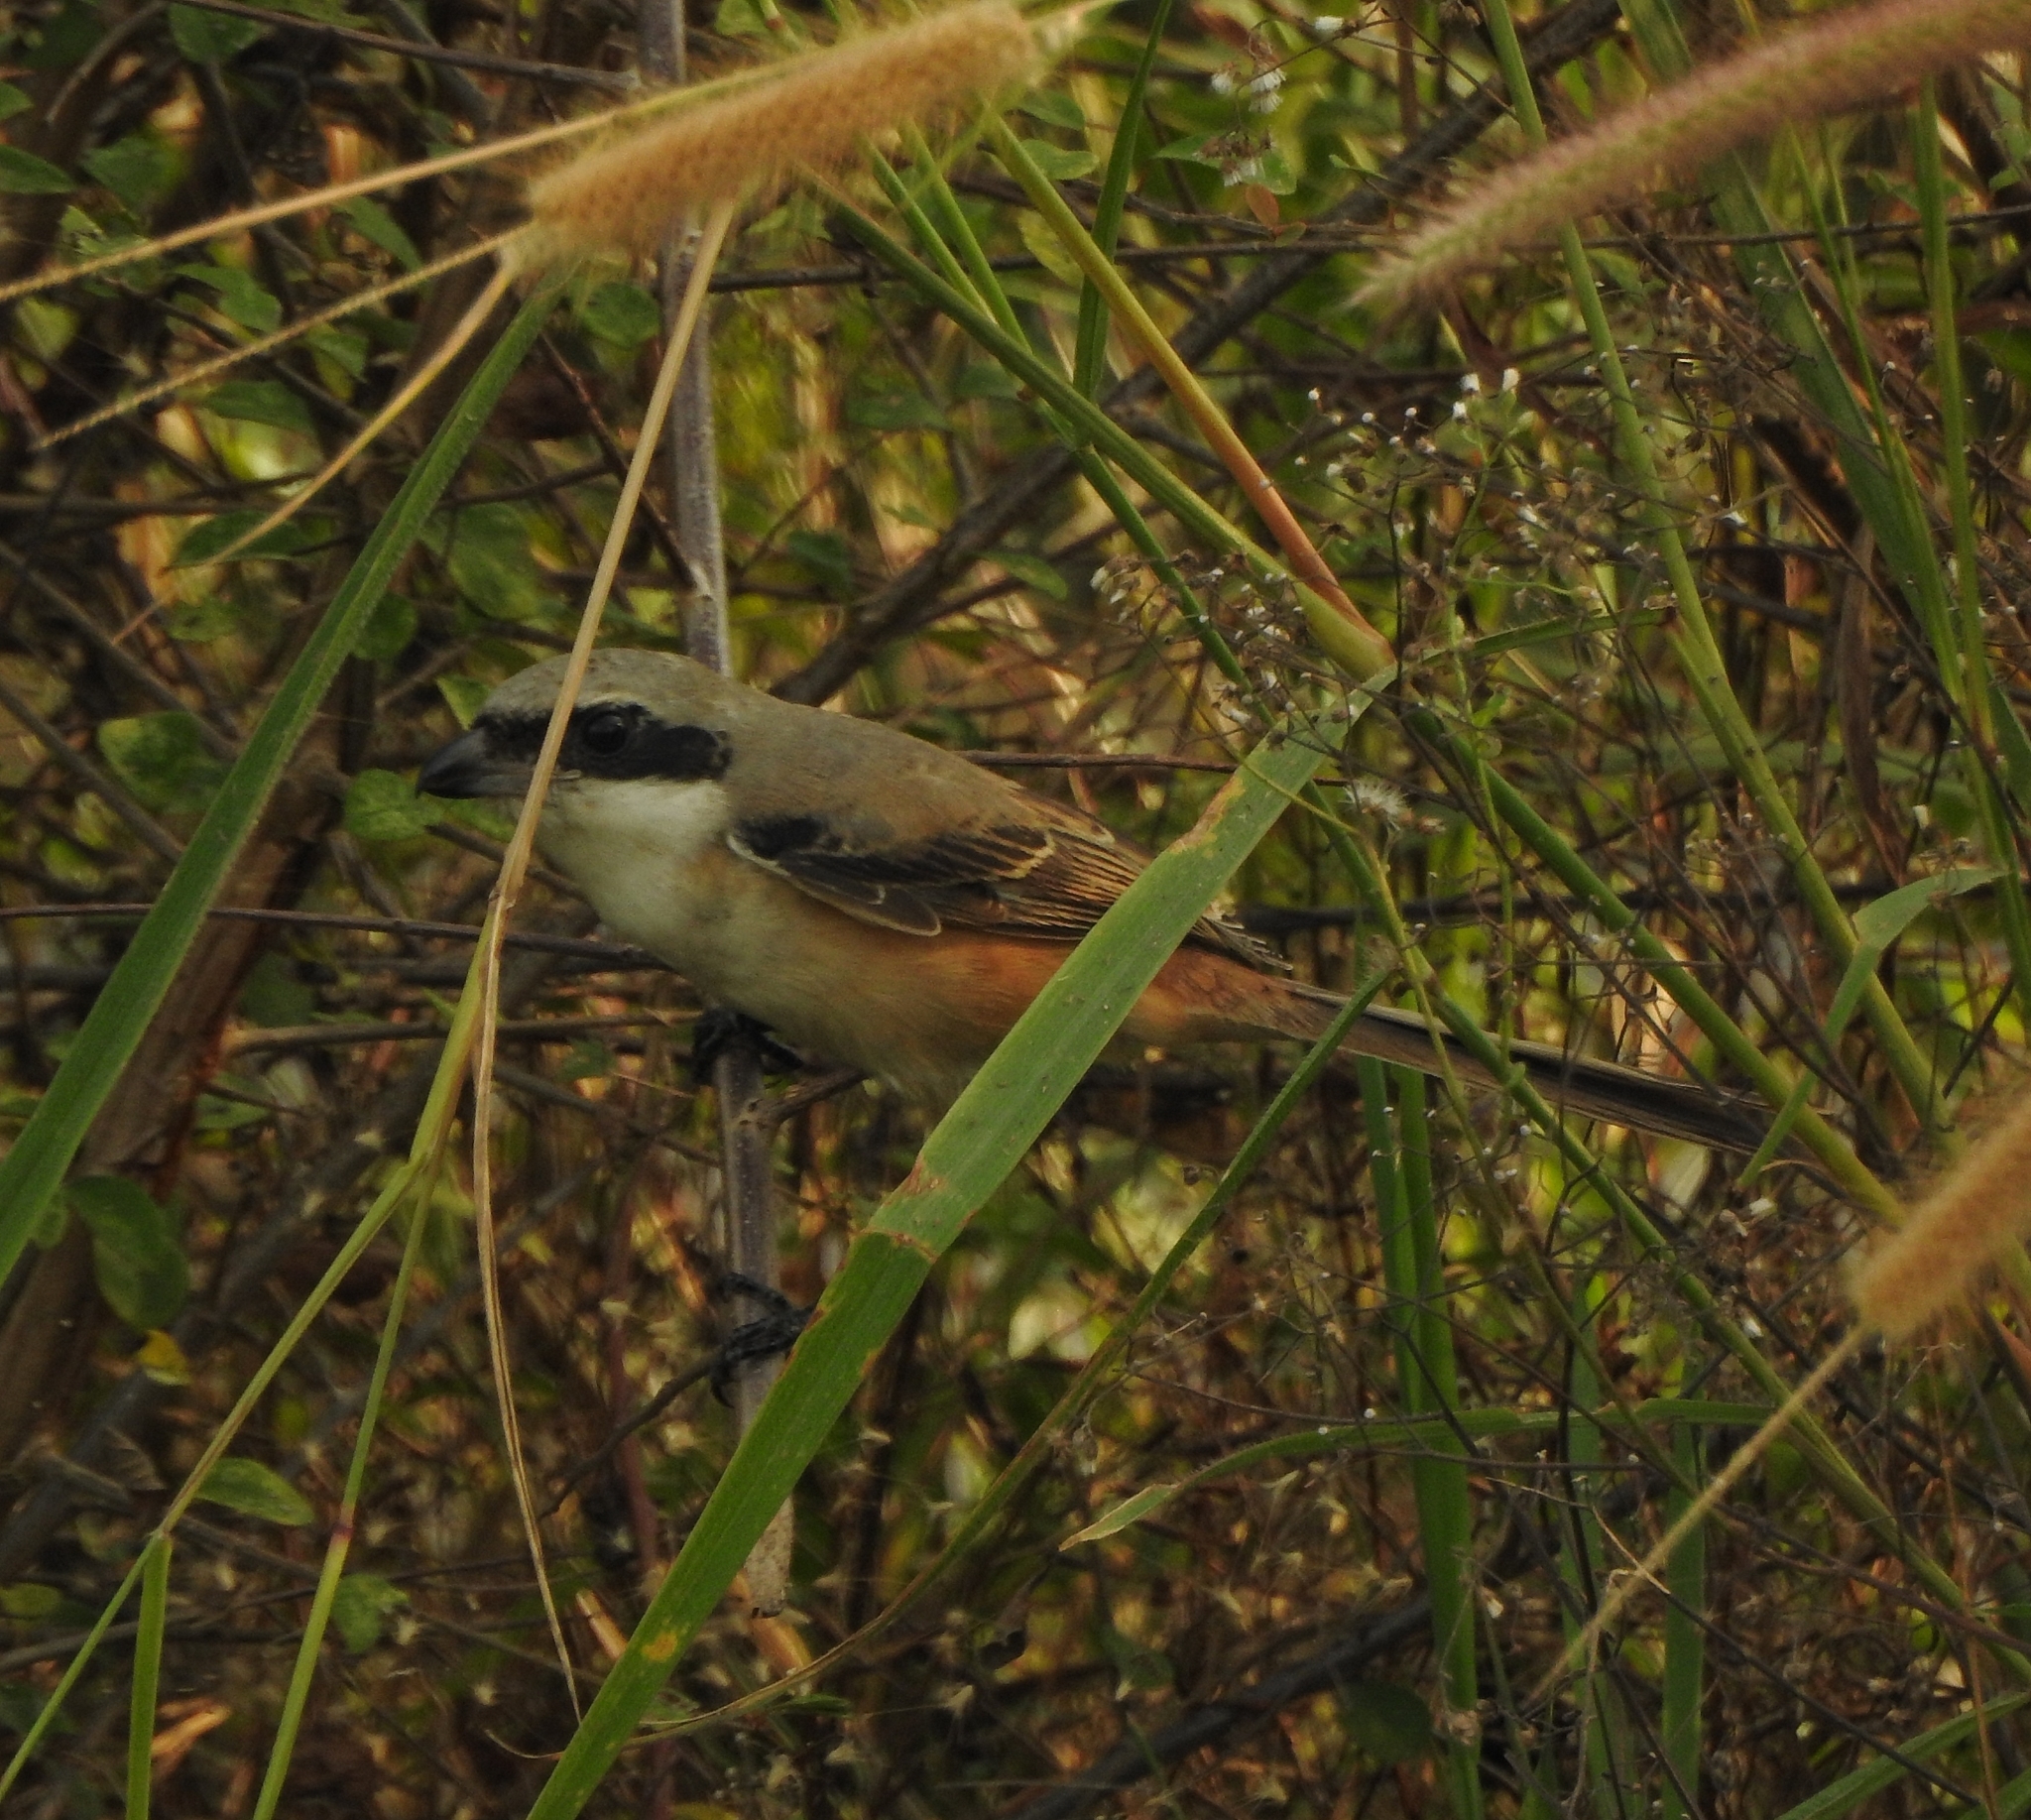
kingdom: Animalia
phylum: Chordata
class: Aves
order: Passeriformes
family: Laniidae
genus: Lanius
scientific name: Lanius schach
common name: Long-tailed shrike
